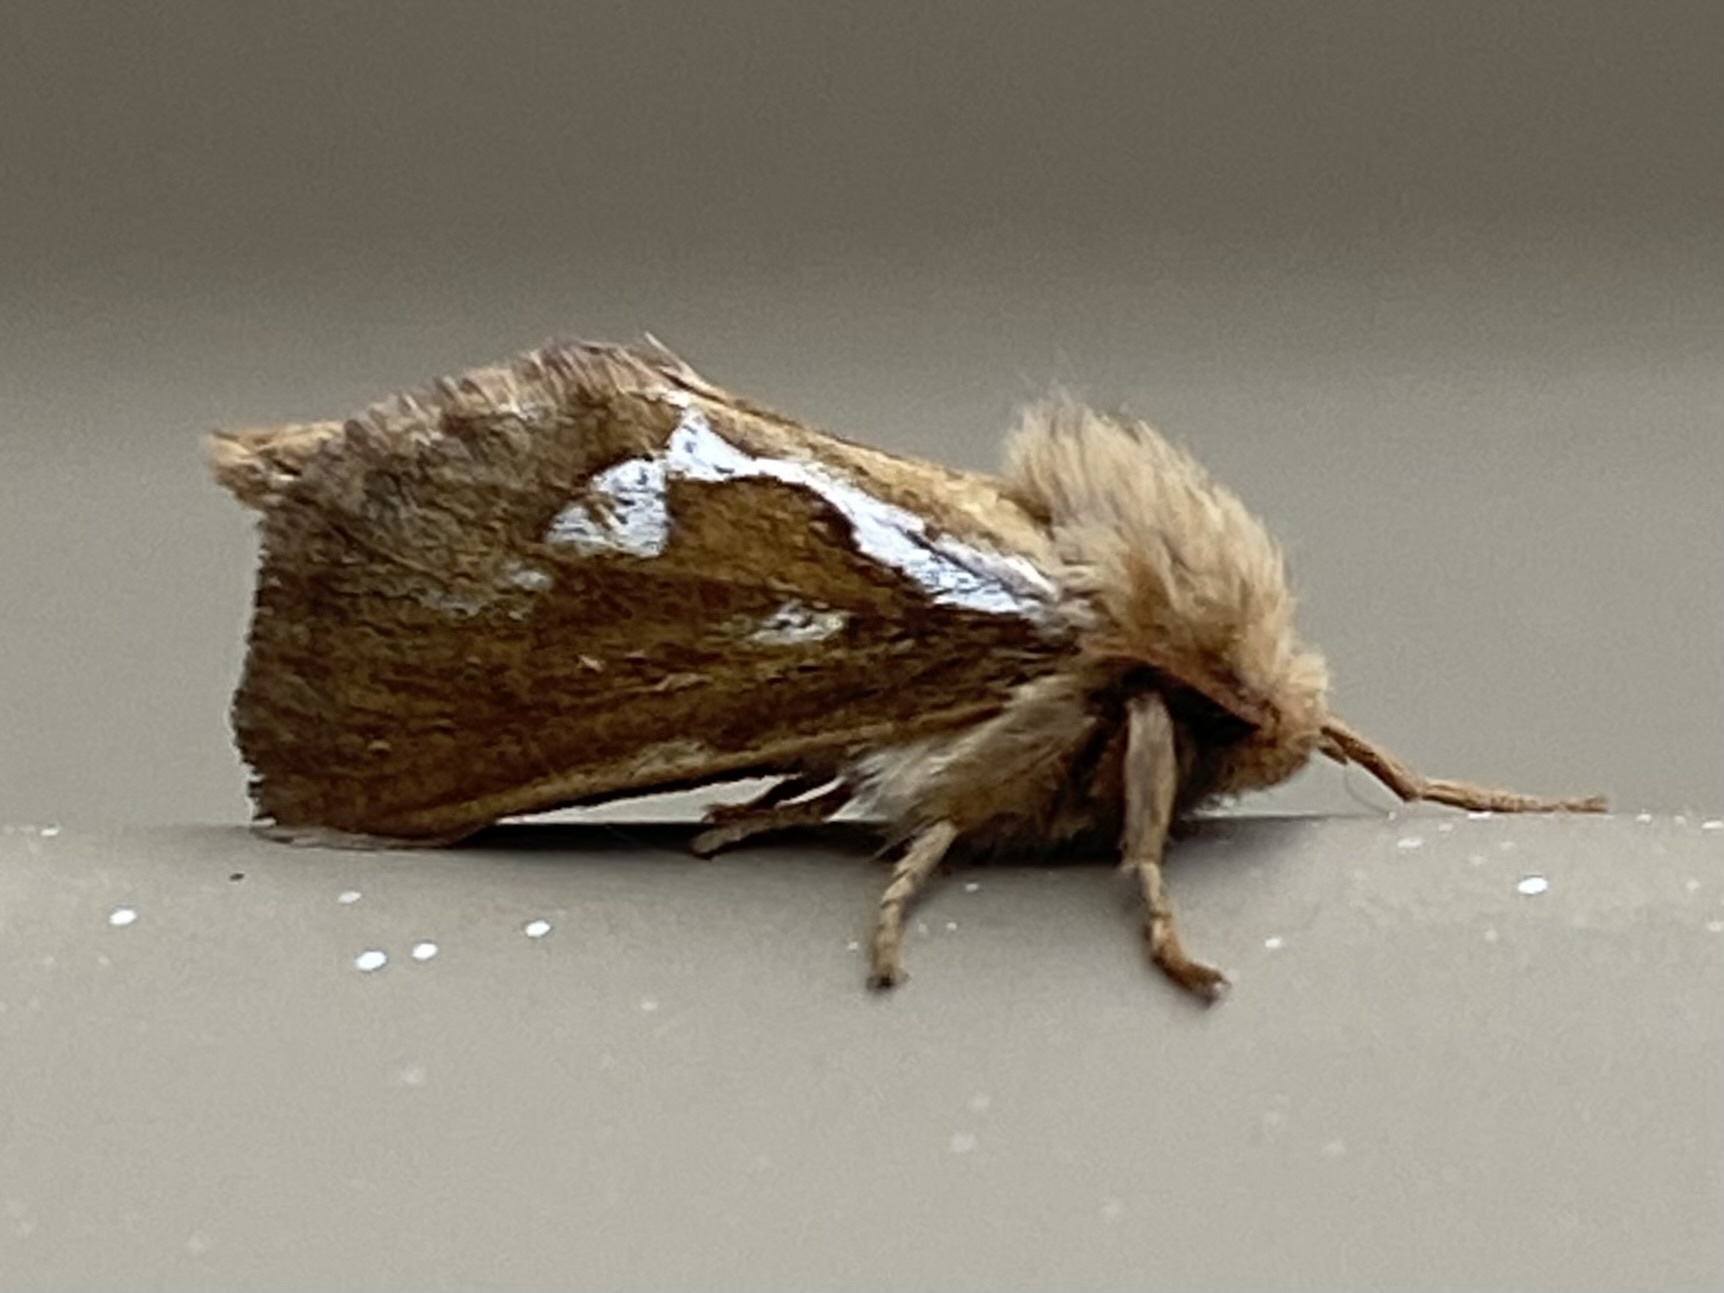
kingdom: Animalia
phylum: Arthropoda
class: Insecta
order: Lepidoptera
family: Hepialidae
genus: Korscheltellus
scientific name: Korscheltellus lupulina
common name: Common swift
